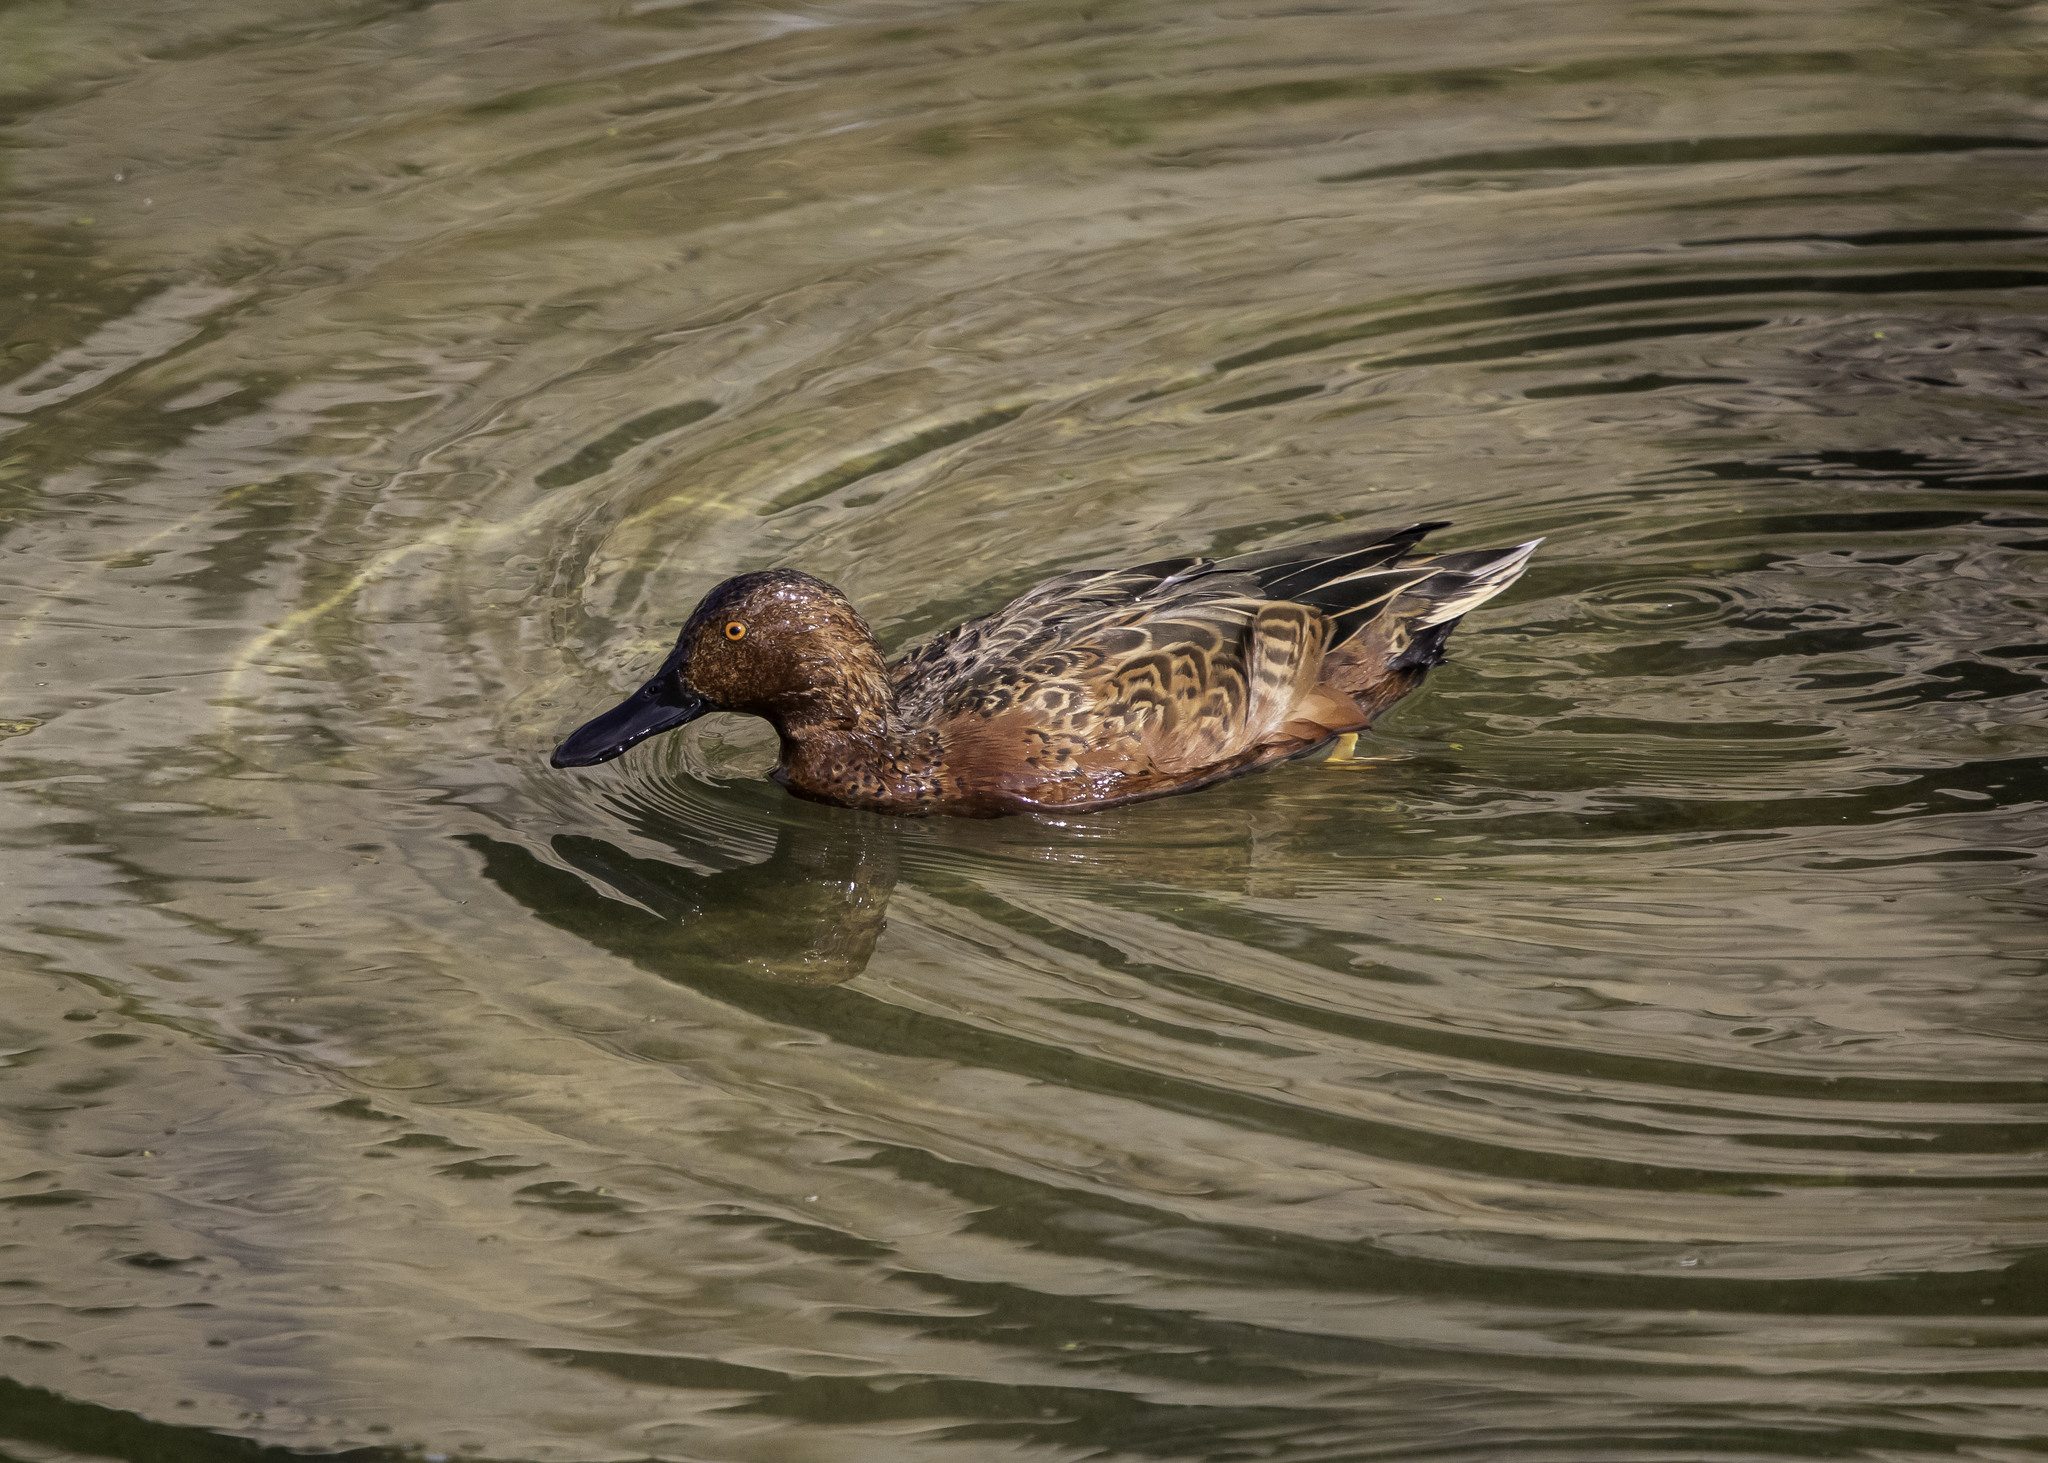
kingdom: Animalia
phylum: Chordata
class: Aves
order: Anseriformes
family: Anatidae
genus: Spatula
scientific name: Spatula cyanoptera
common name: Cinnamon teal
